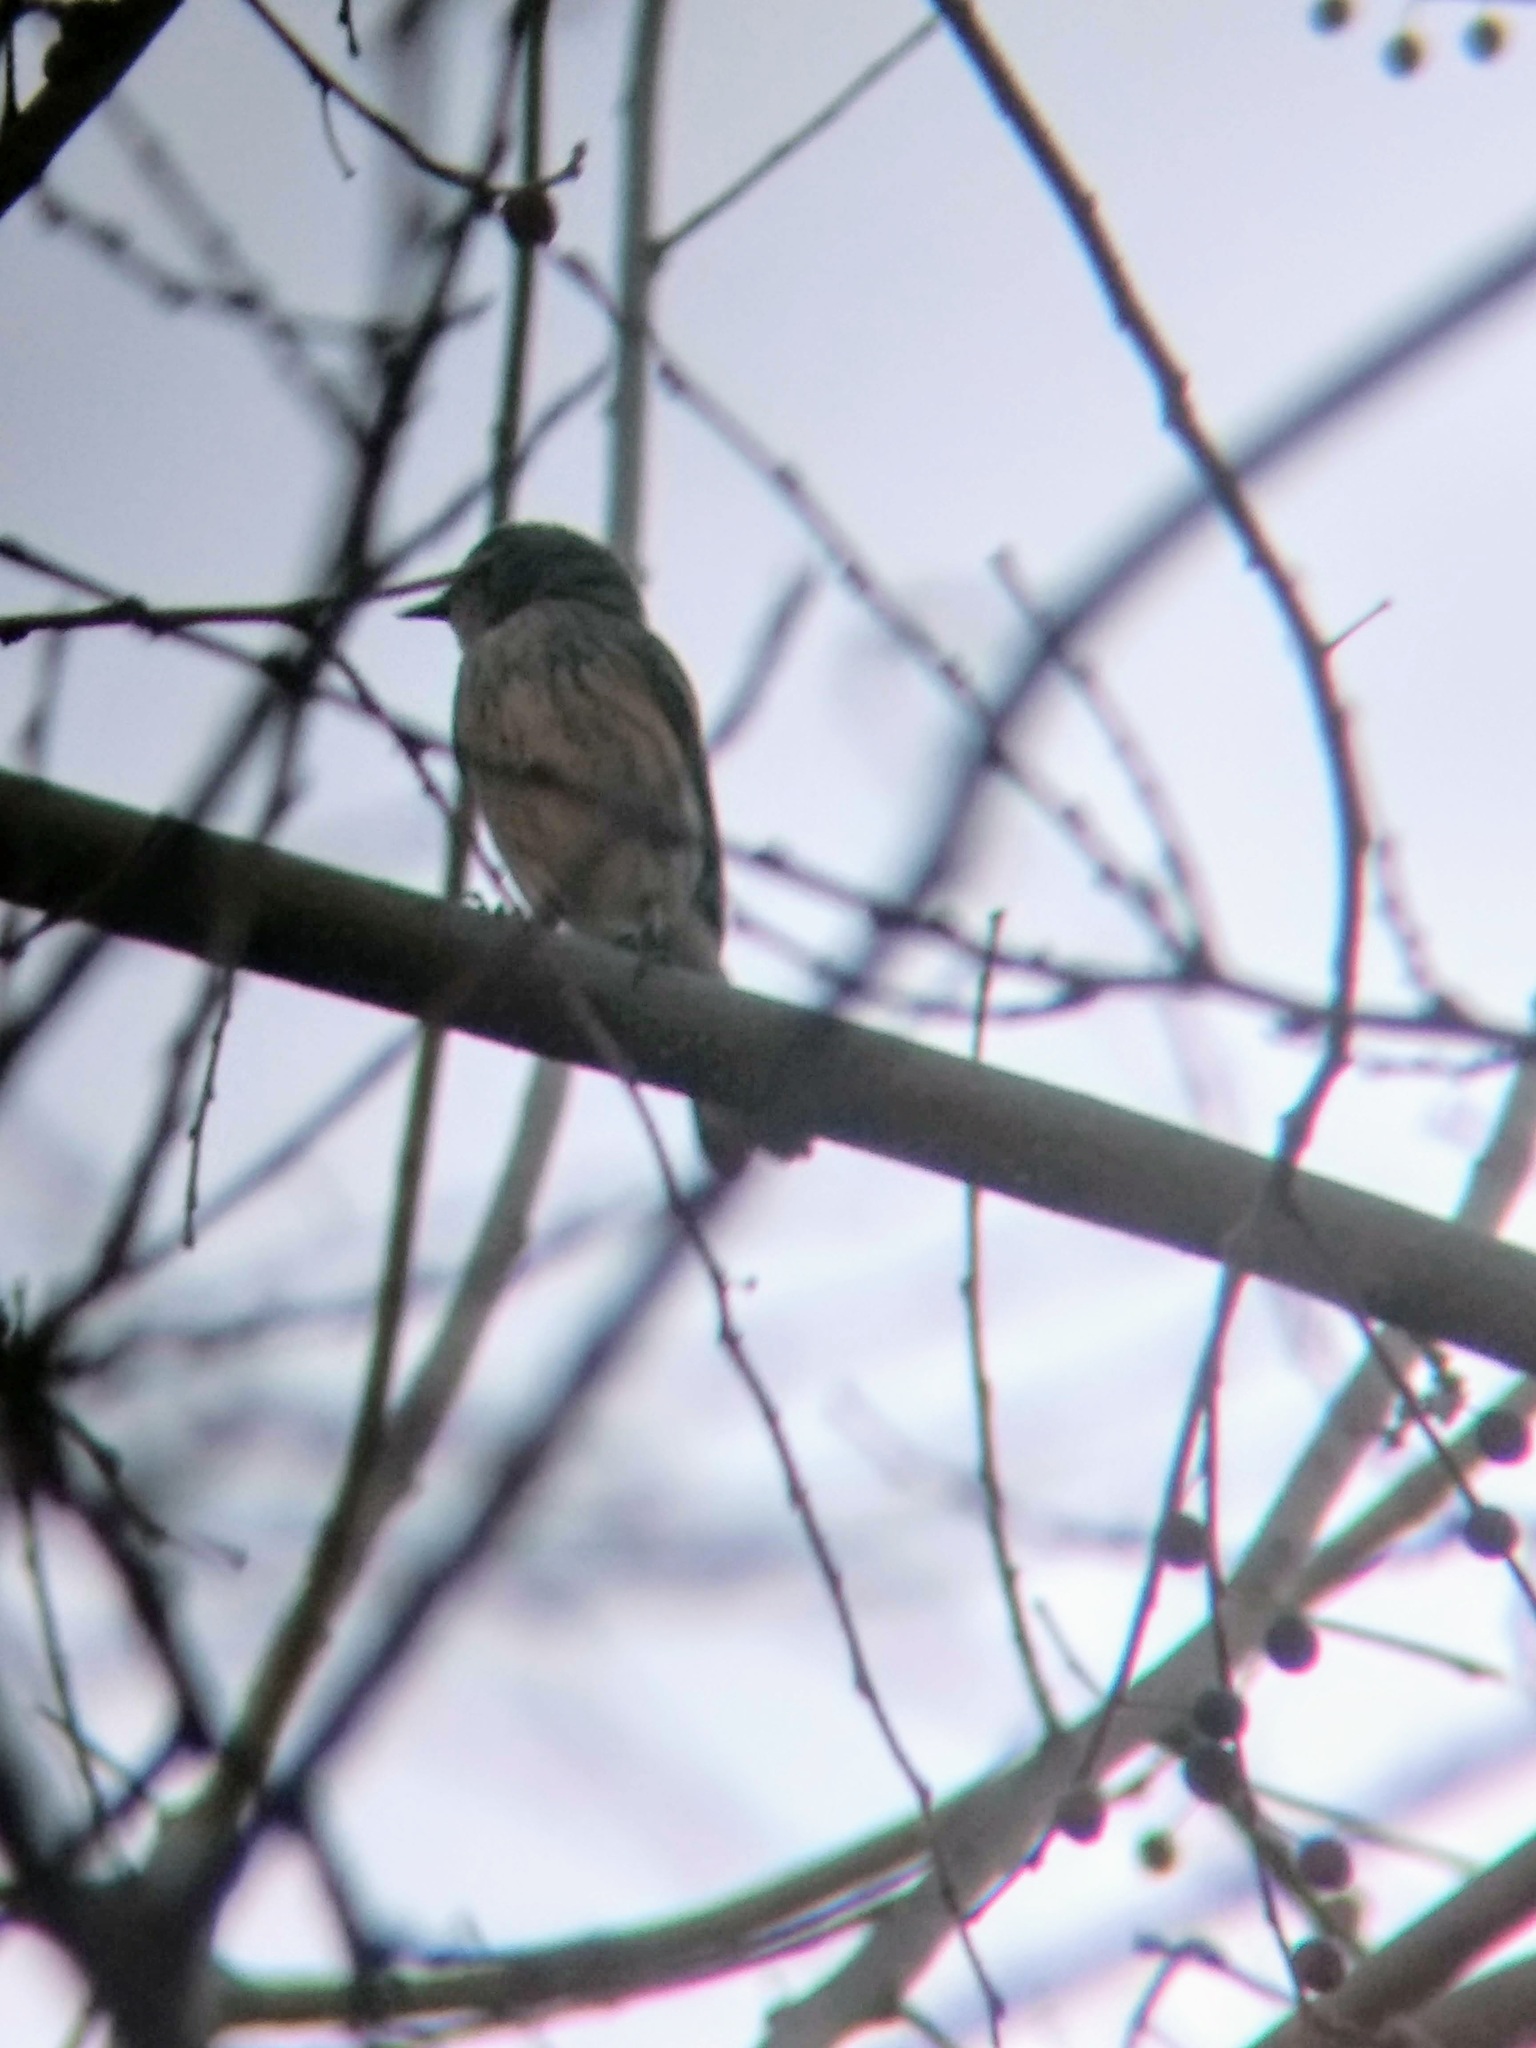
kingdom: Animalia
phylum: Chordata
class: Aves
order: Passeriformes
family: Parulidae
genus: Setophaga
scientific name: Setophaga coronata
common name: Myrtle warbler
